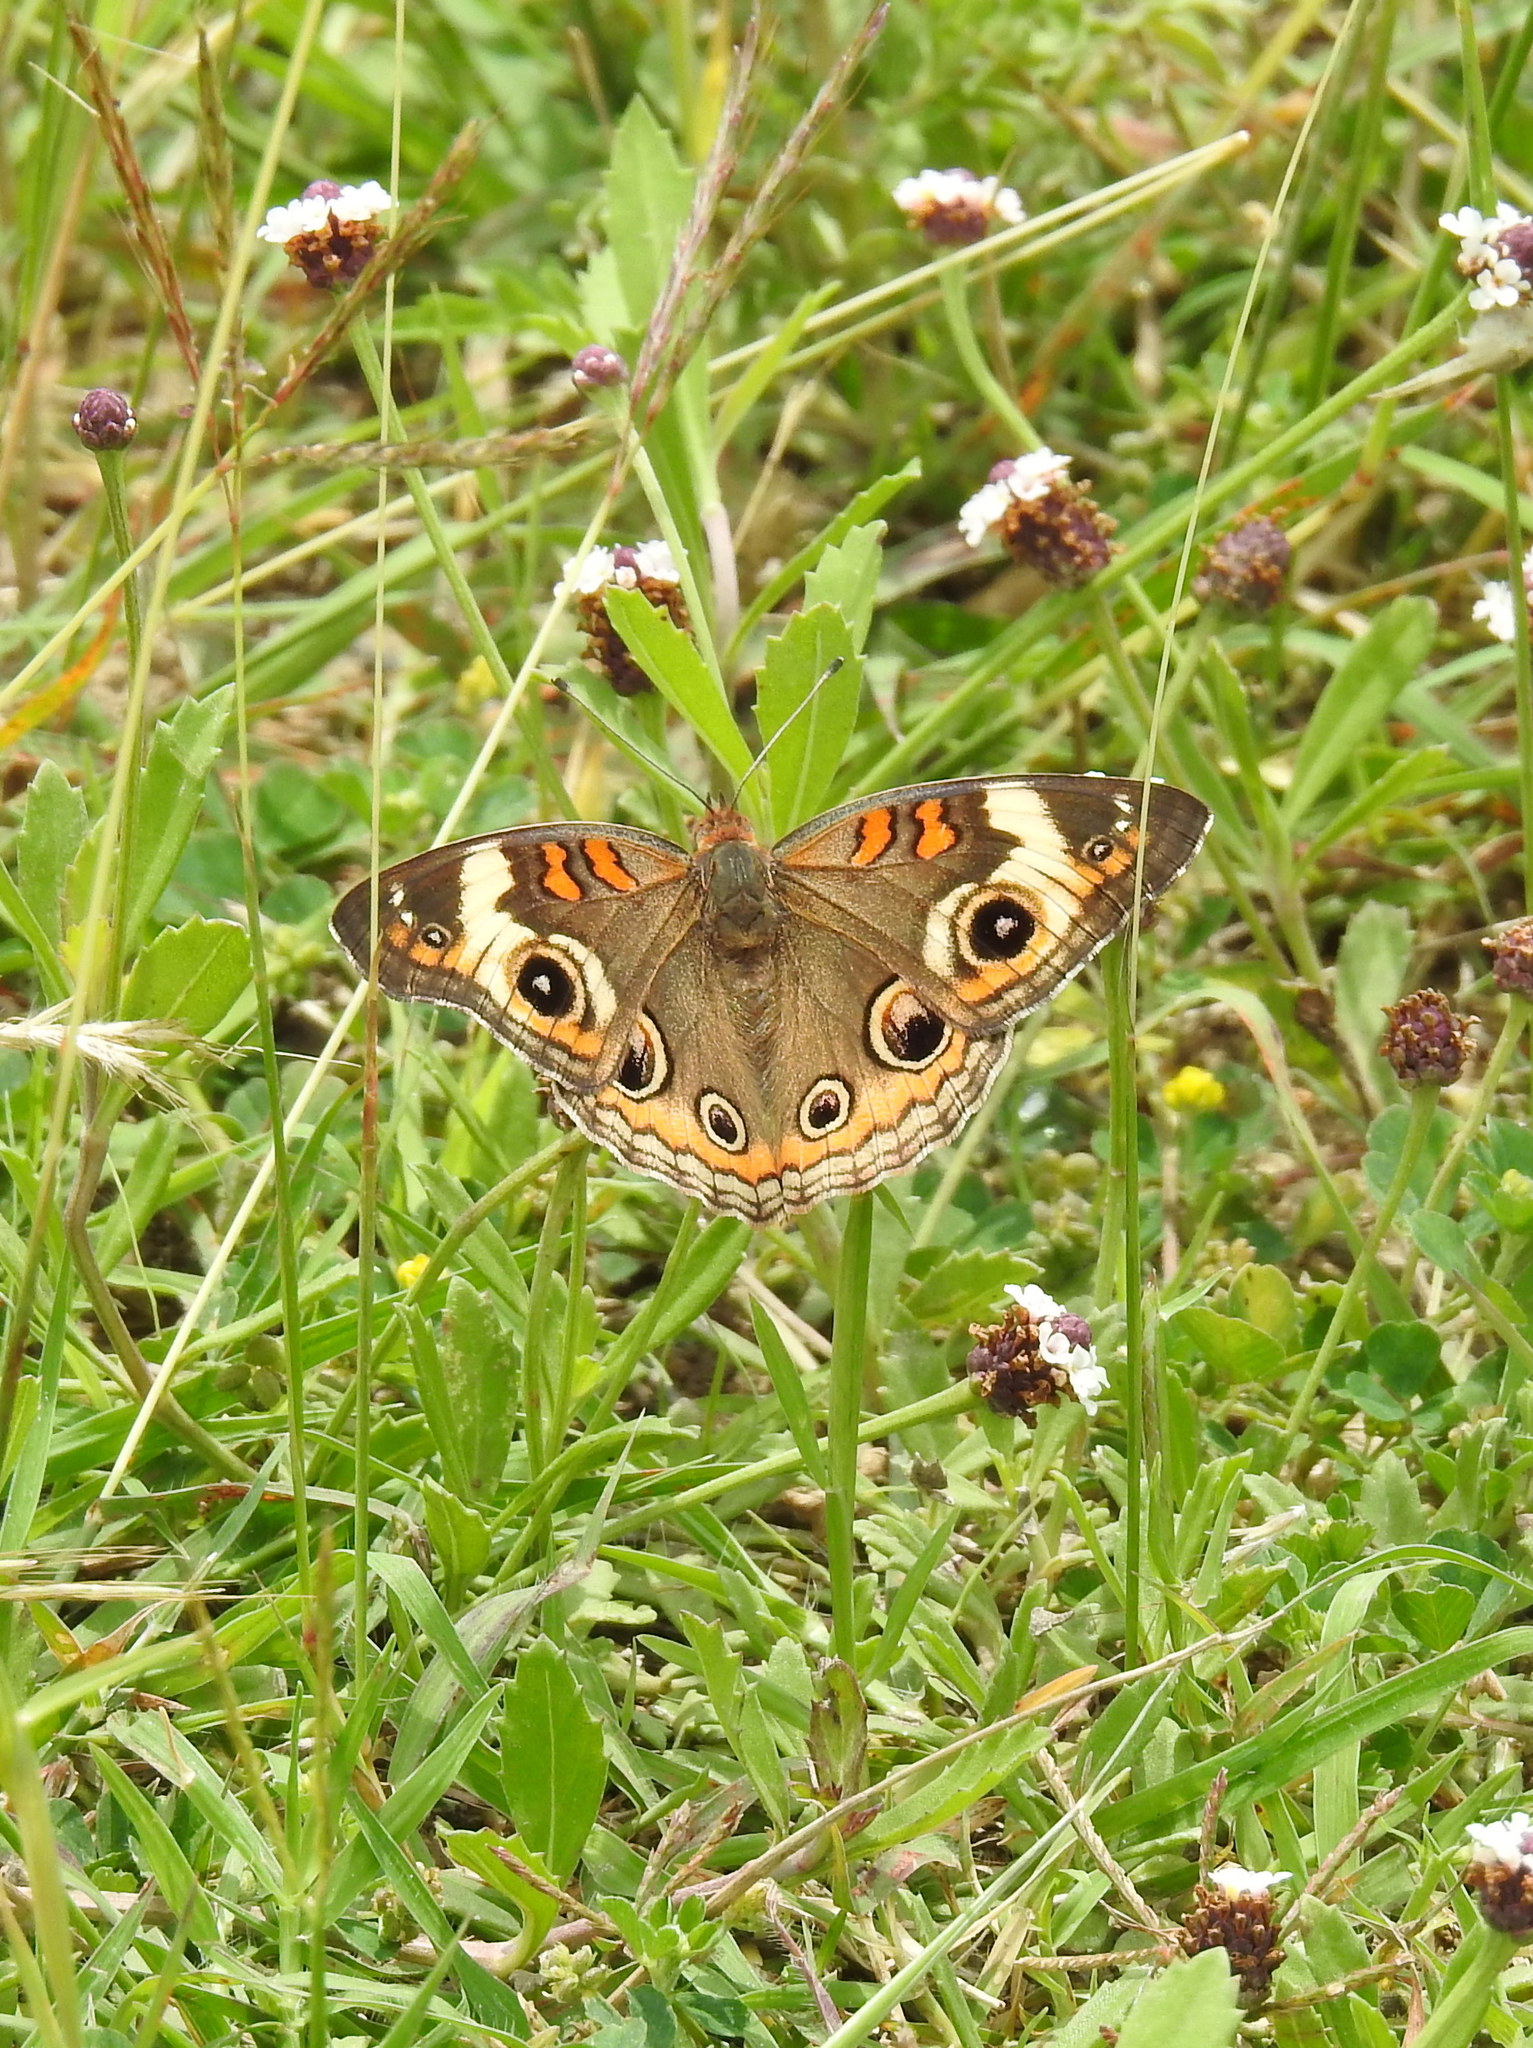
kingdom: Animalia
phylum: Arthropoda
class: Insecta
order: Lepidoptera
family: Nymphalidae
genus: Junonia
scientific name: Junonia coenia
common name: Common buckeye
